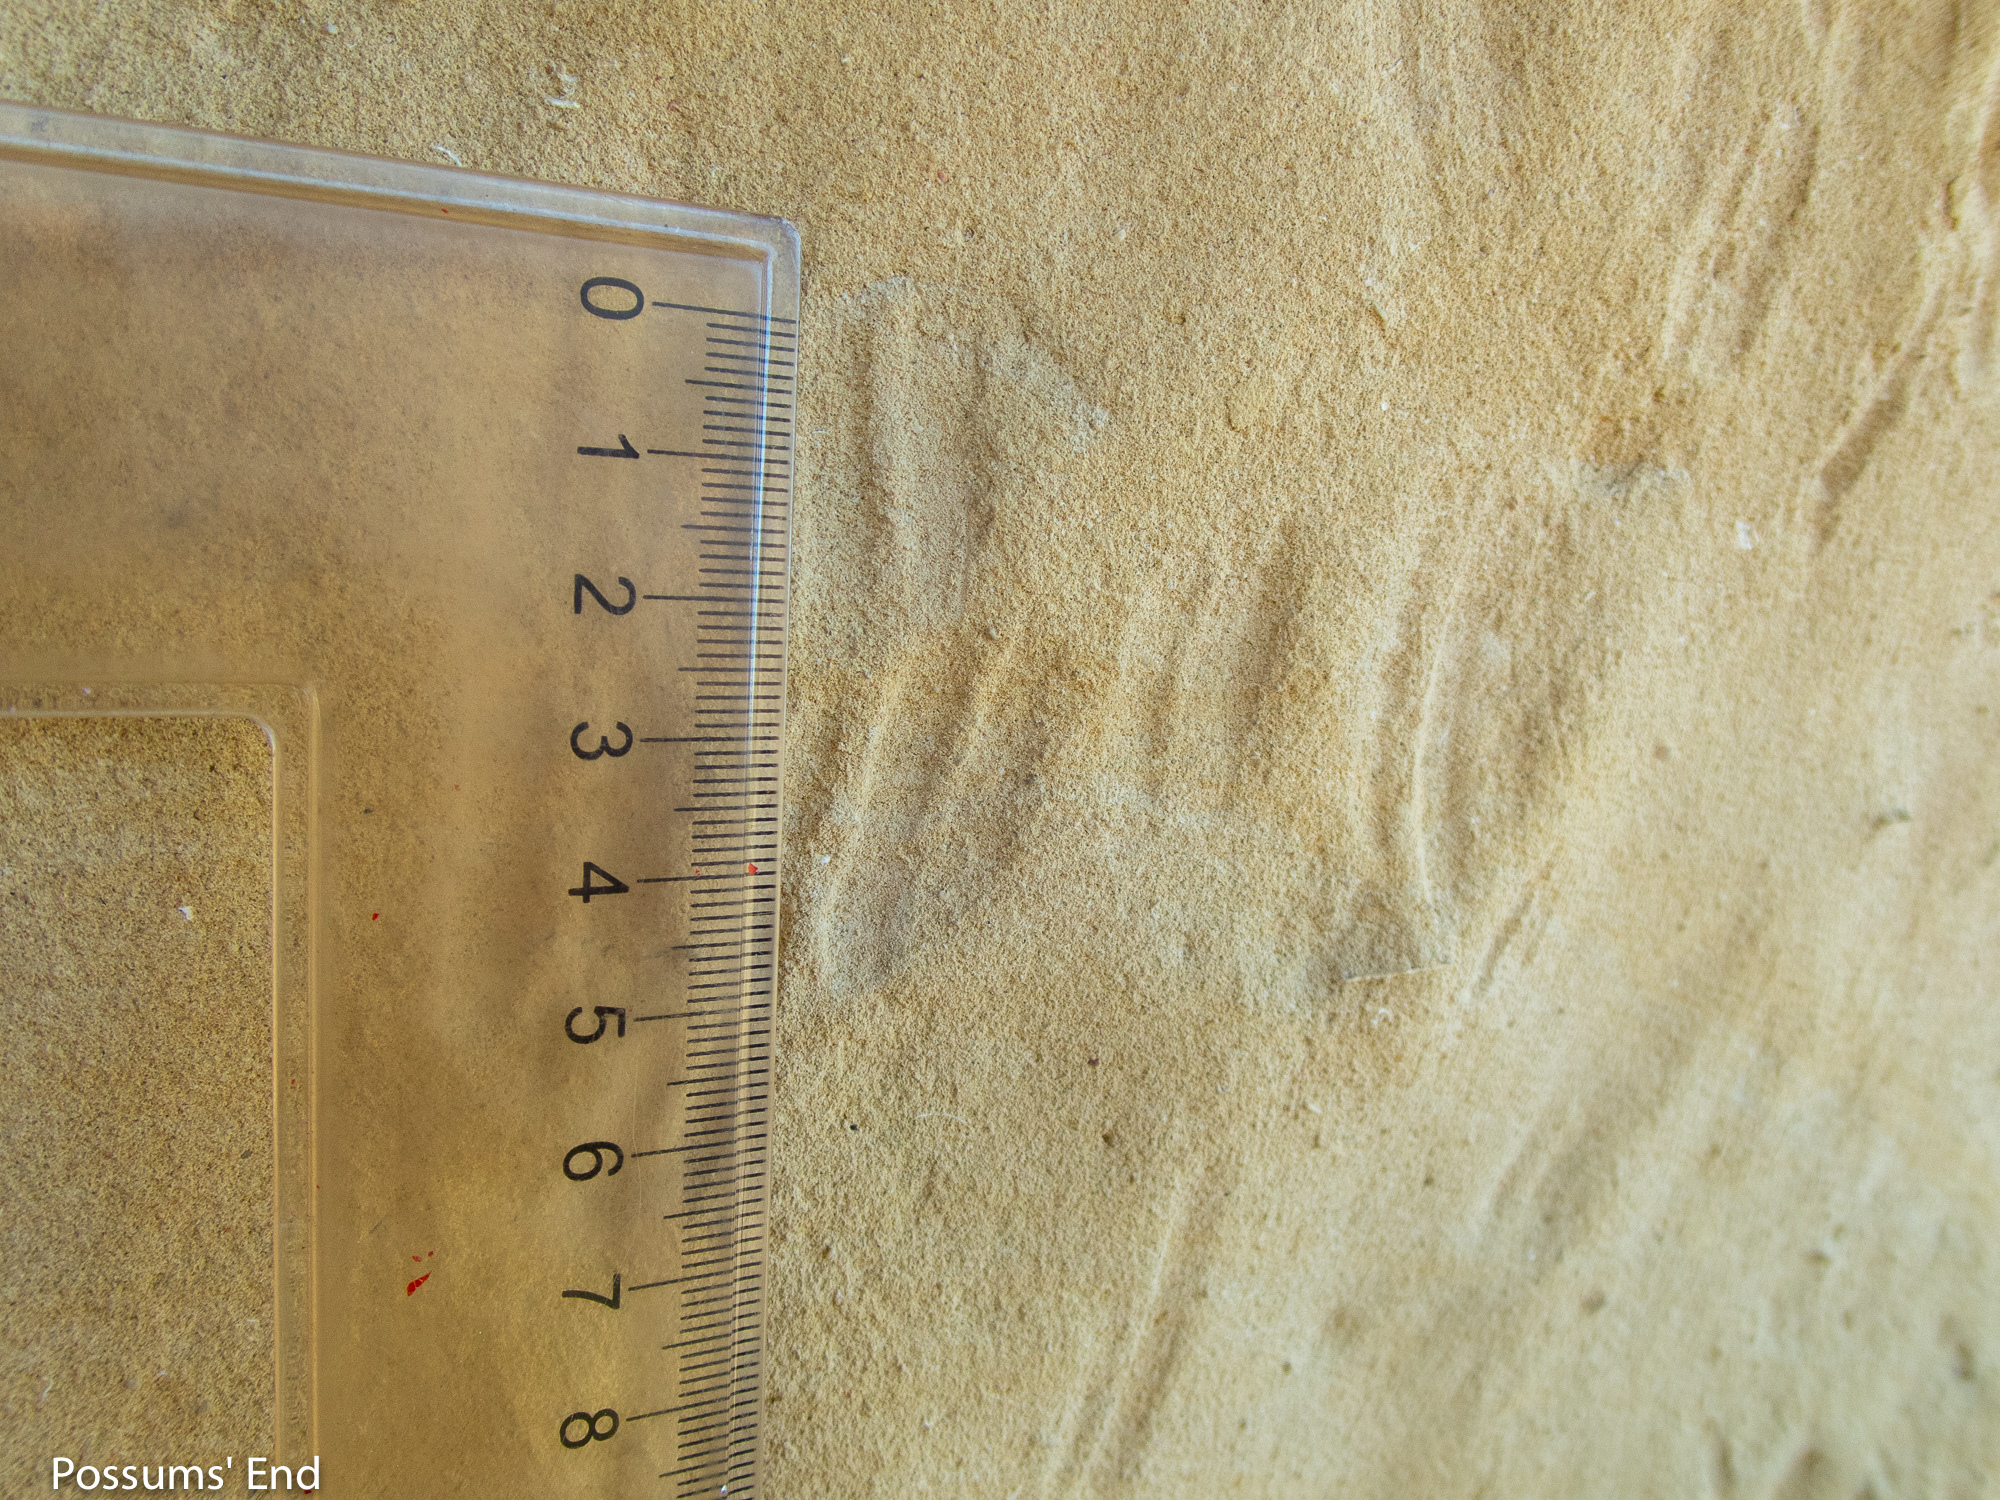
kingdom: Animalia
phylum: Chordata
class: Mammalia
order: Diprotodontia
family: Phalangeridae
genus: Trichosurus
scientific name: Trichosurus vulpecula
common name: Common brushtail
